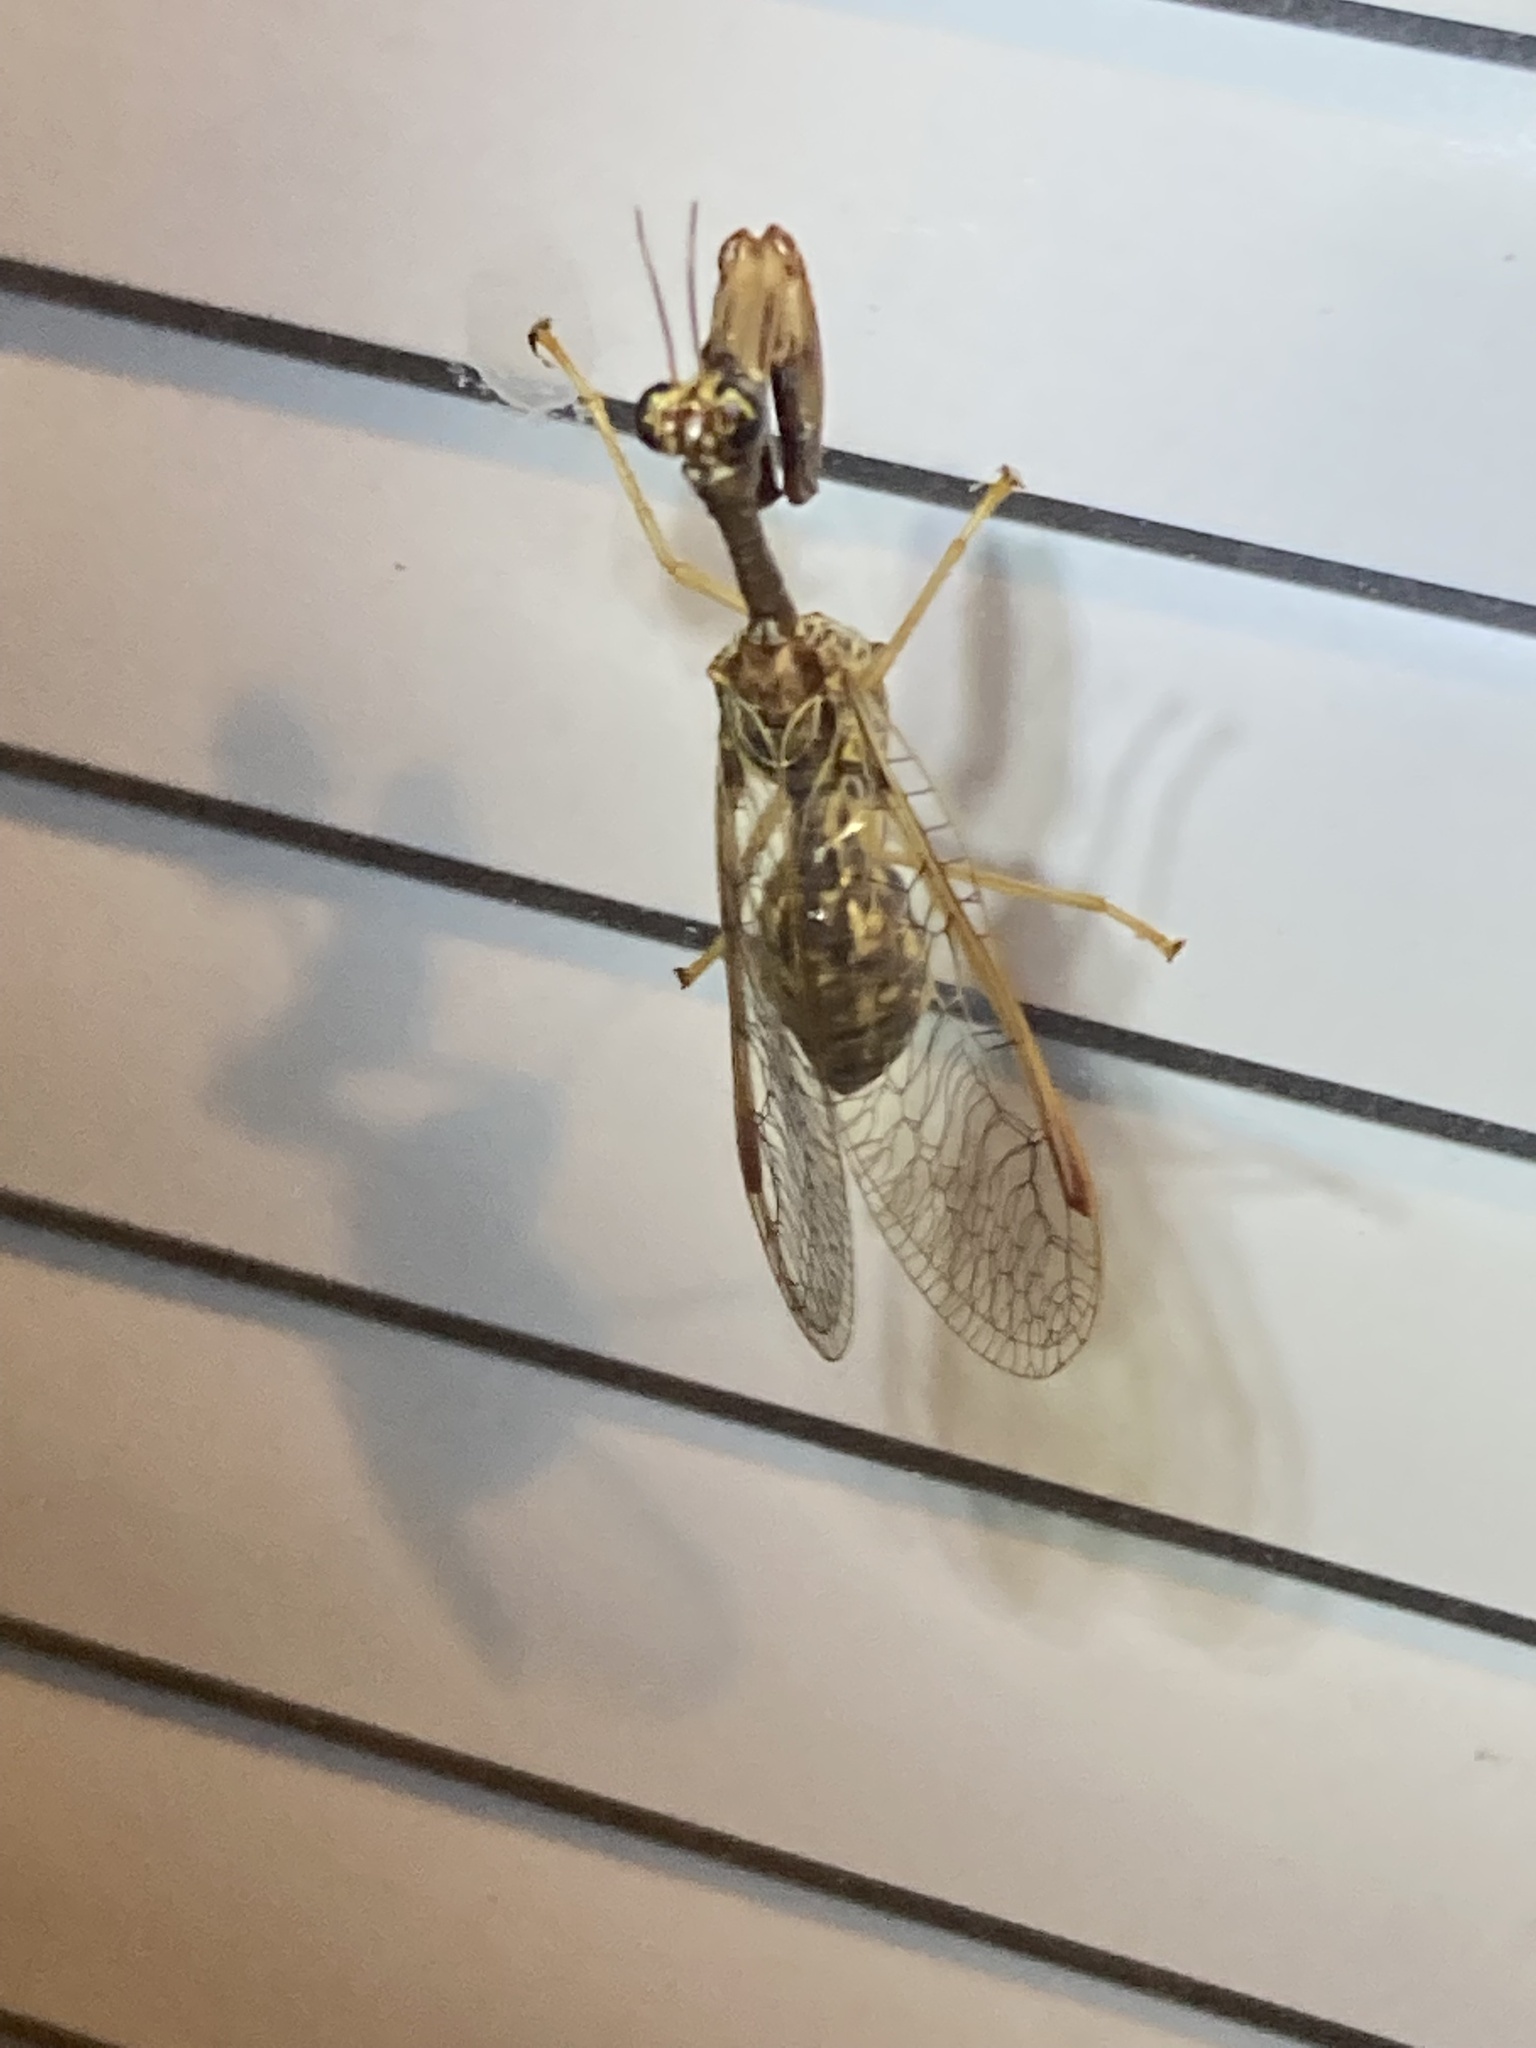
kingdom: Animalia
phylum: Arthropoda
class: Insecta
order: Neuroptera
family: Mantispidae
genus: Dicromantispa
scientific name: Dicromantispa sayi
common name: Say's mantidfly
